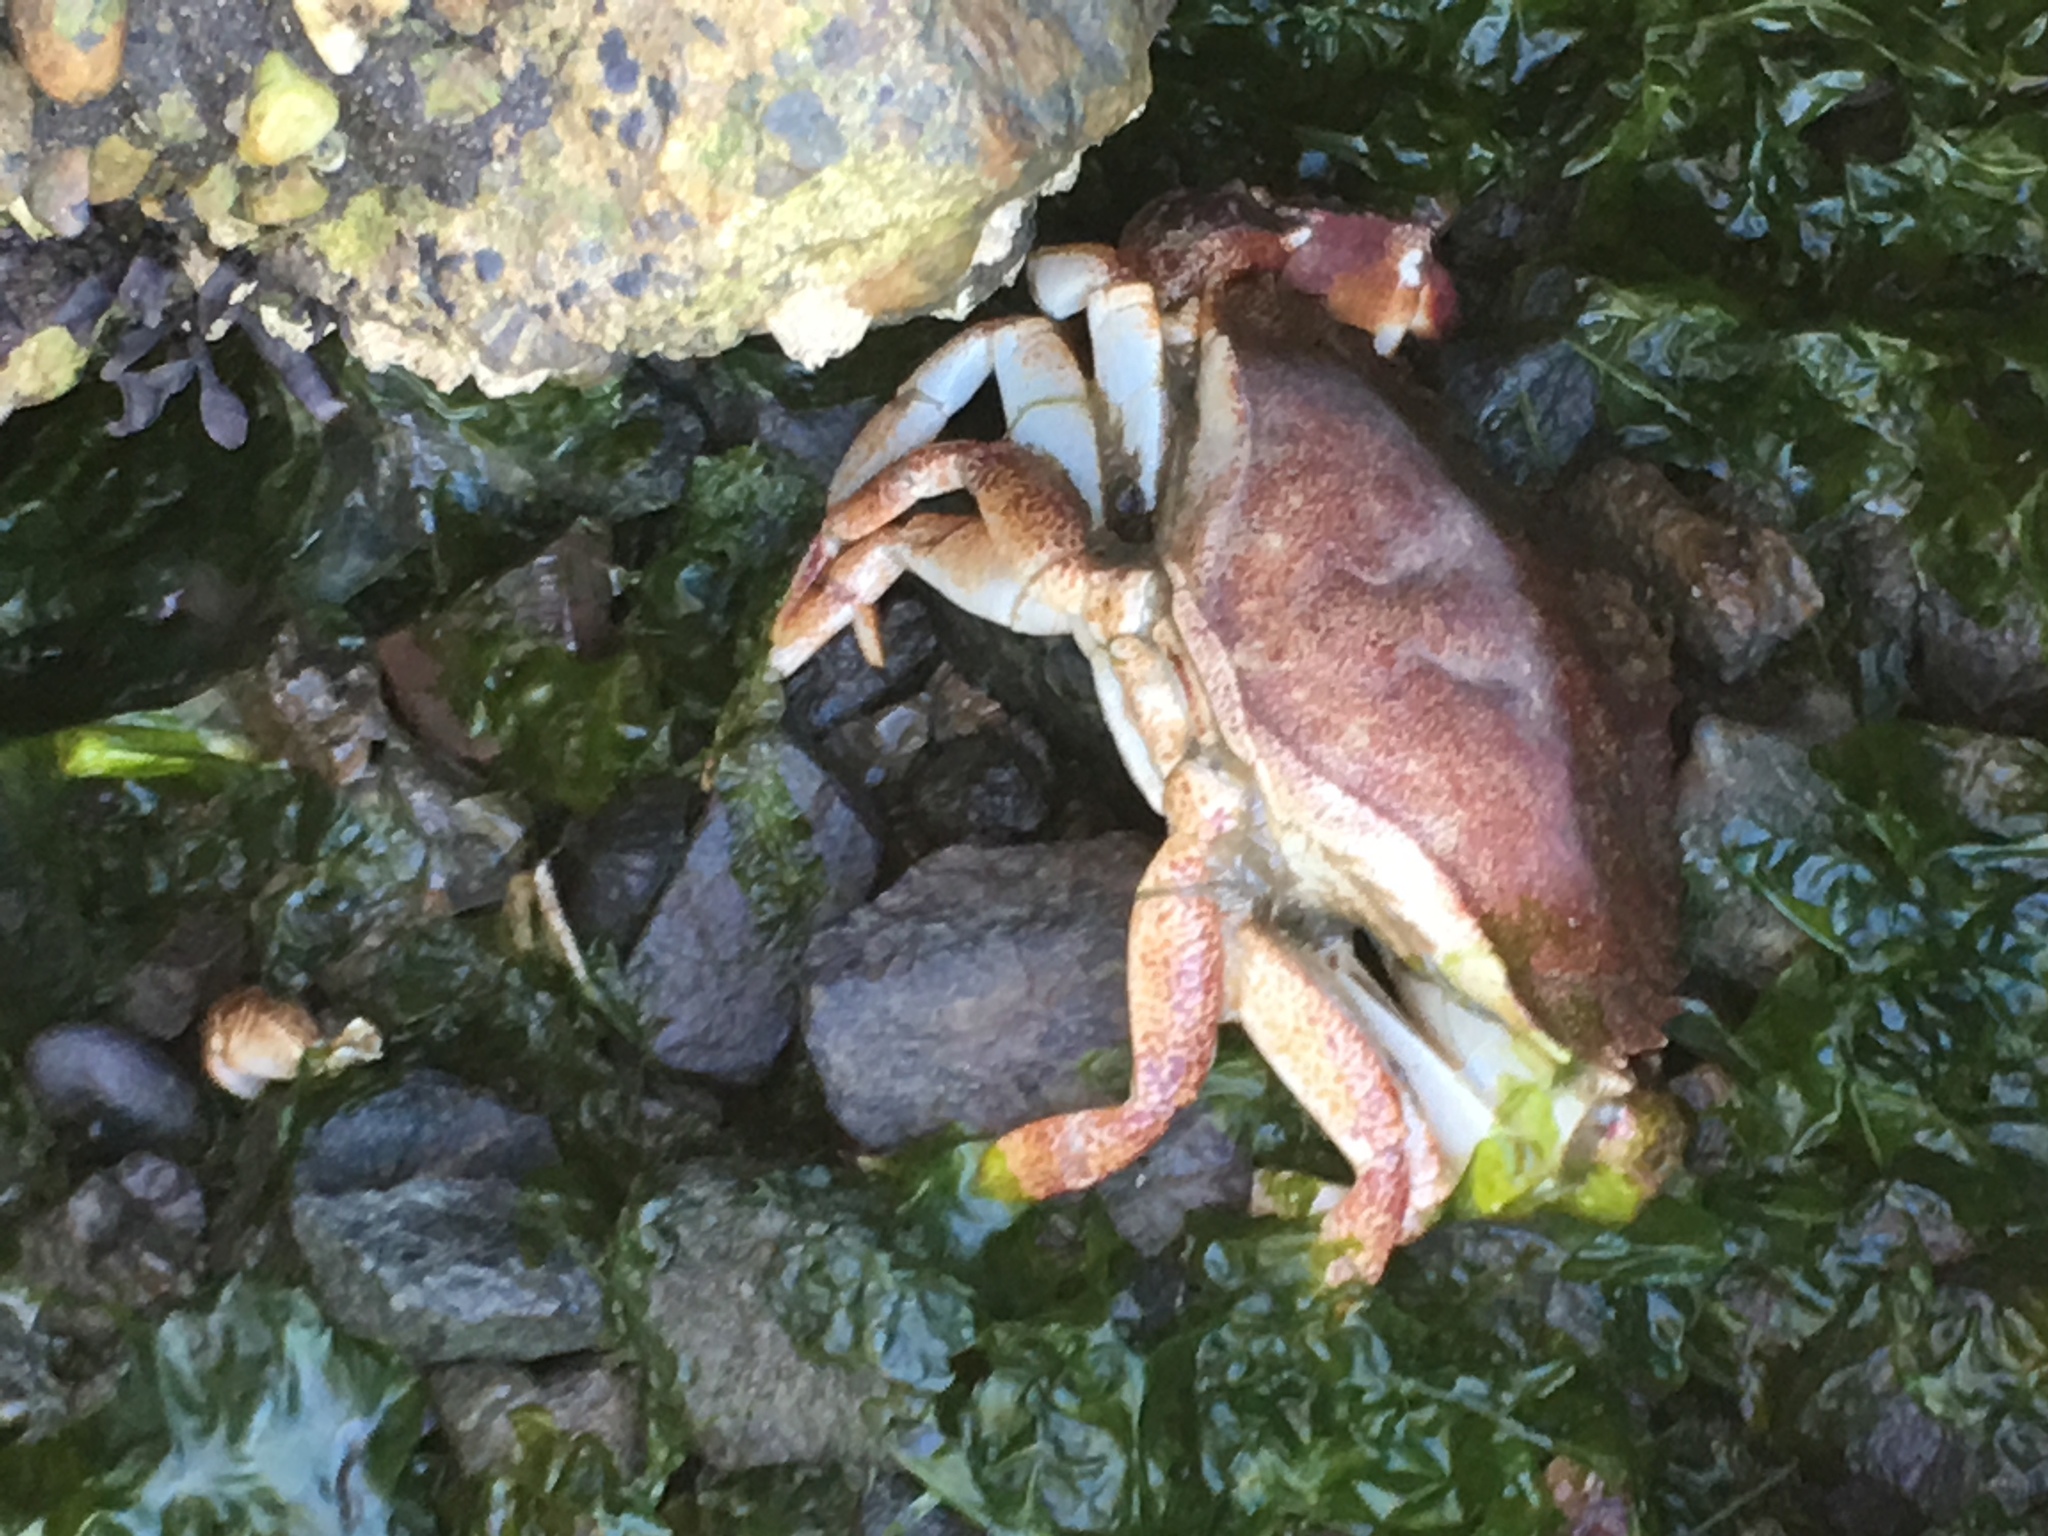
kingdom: Animalia
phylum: Arthropoda
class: Malacostraca
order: Decapoda
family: Cancridae
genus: Cancer
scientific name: Cancer productus
